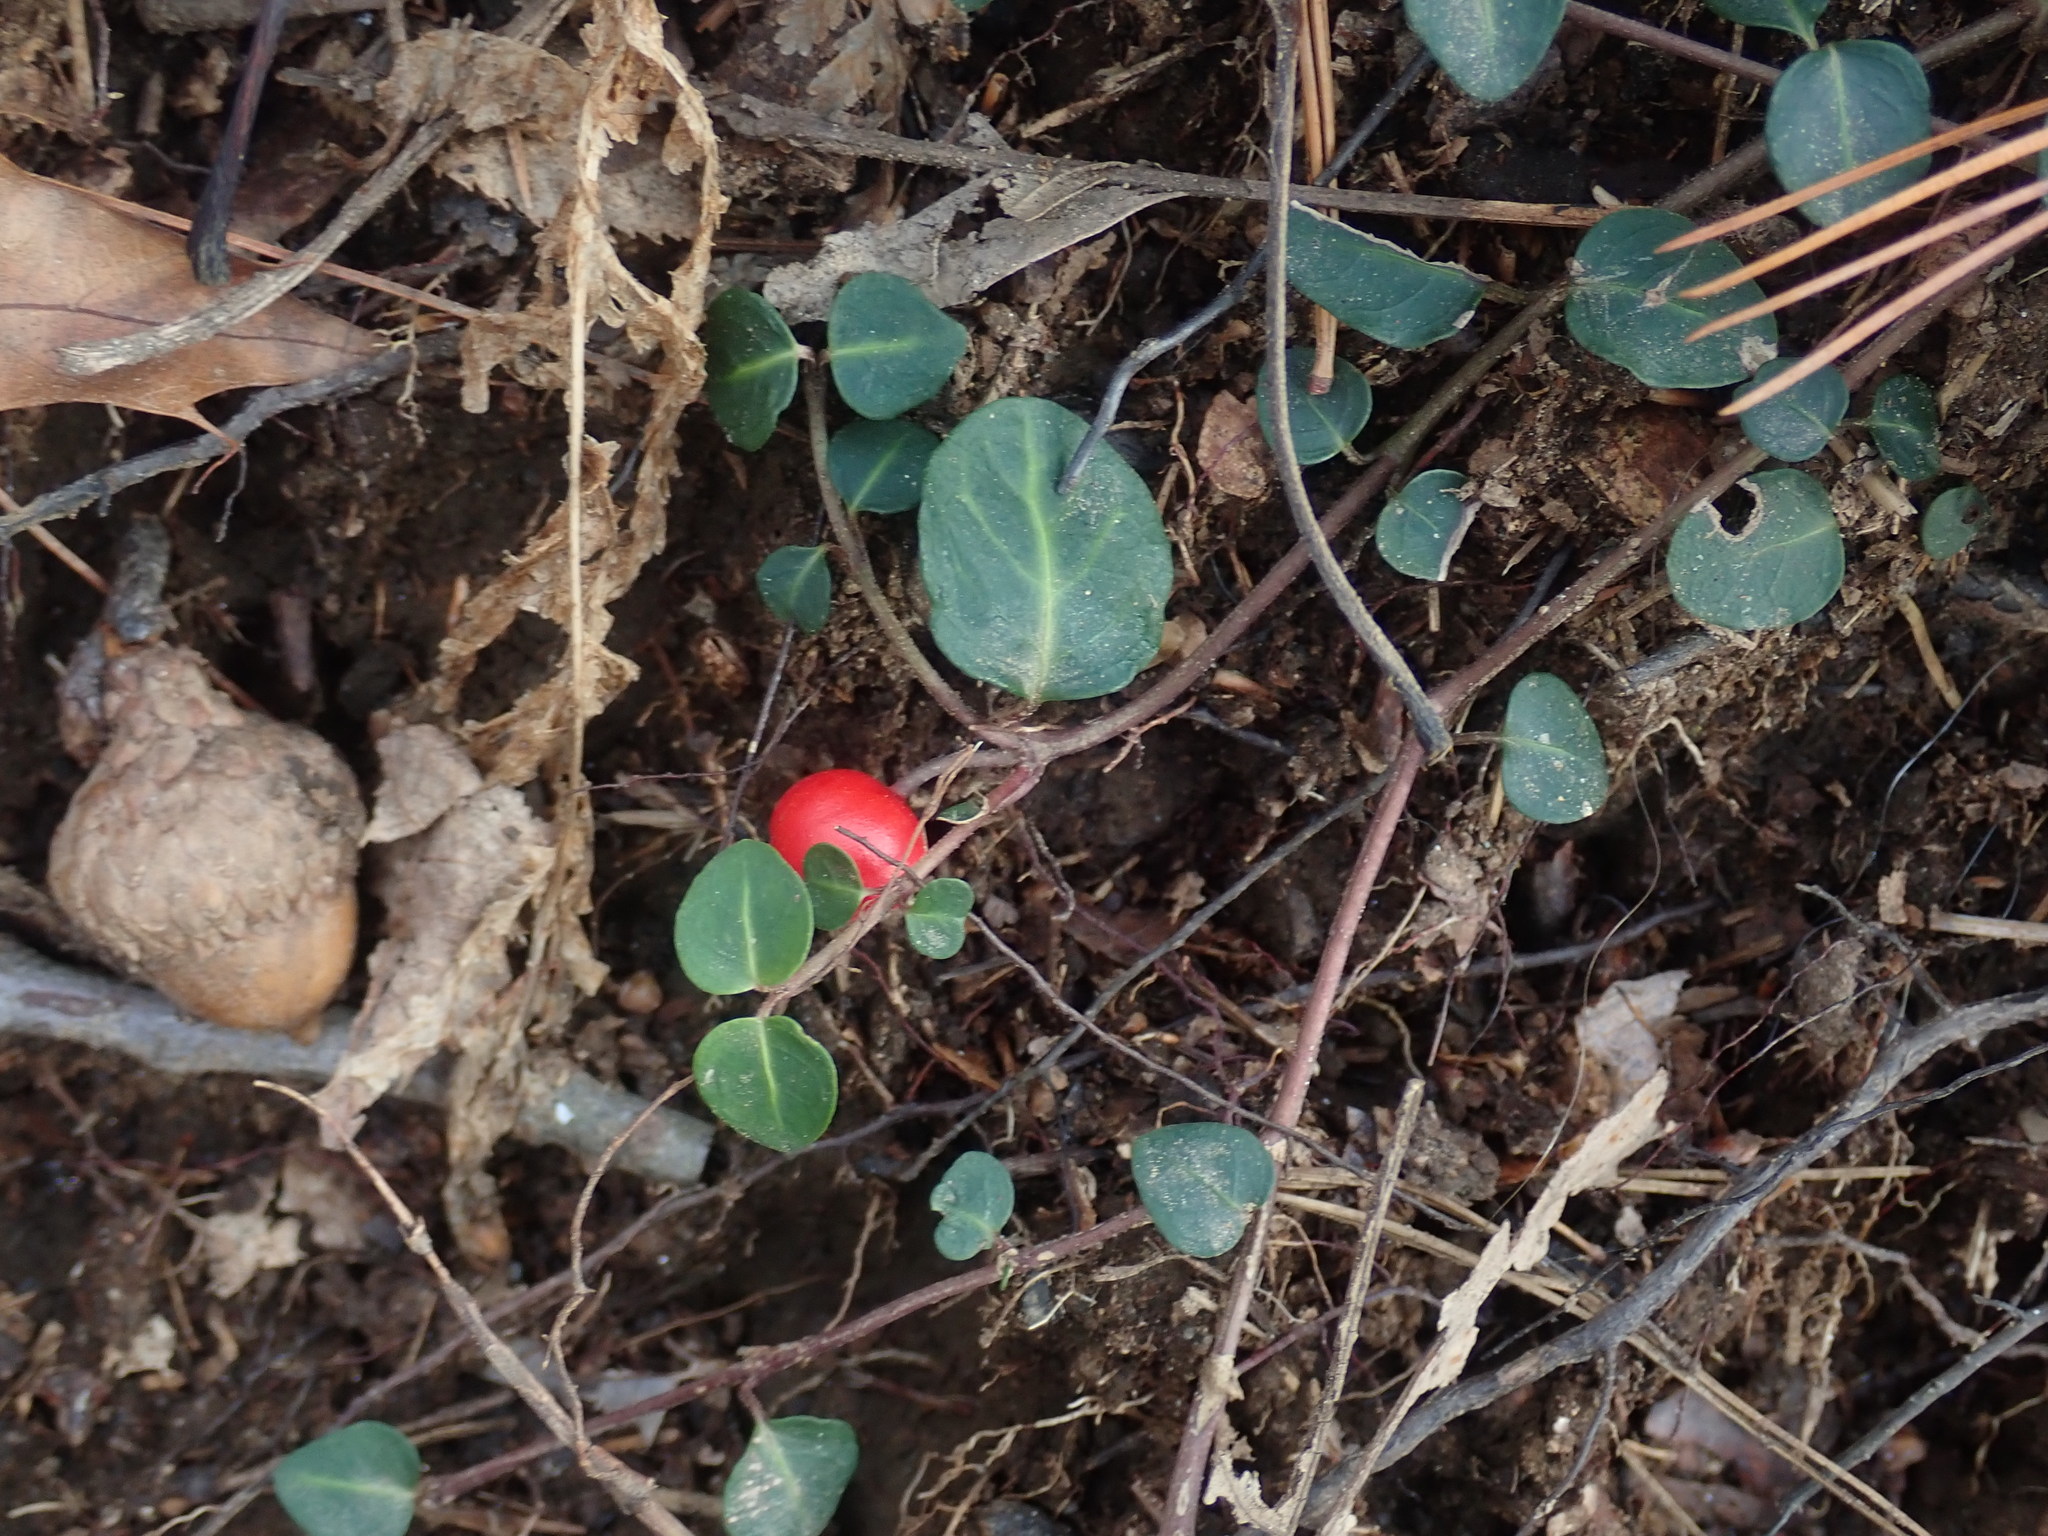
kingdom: Plantae
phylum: Tracheophyta
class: Magnoliopsida
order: Gentianales
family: Rubiaceae
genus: Mitchella
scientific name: Mitchella repens
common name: Partridge-berry
